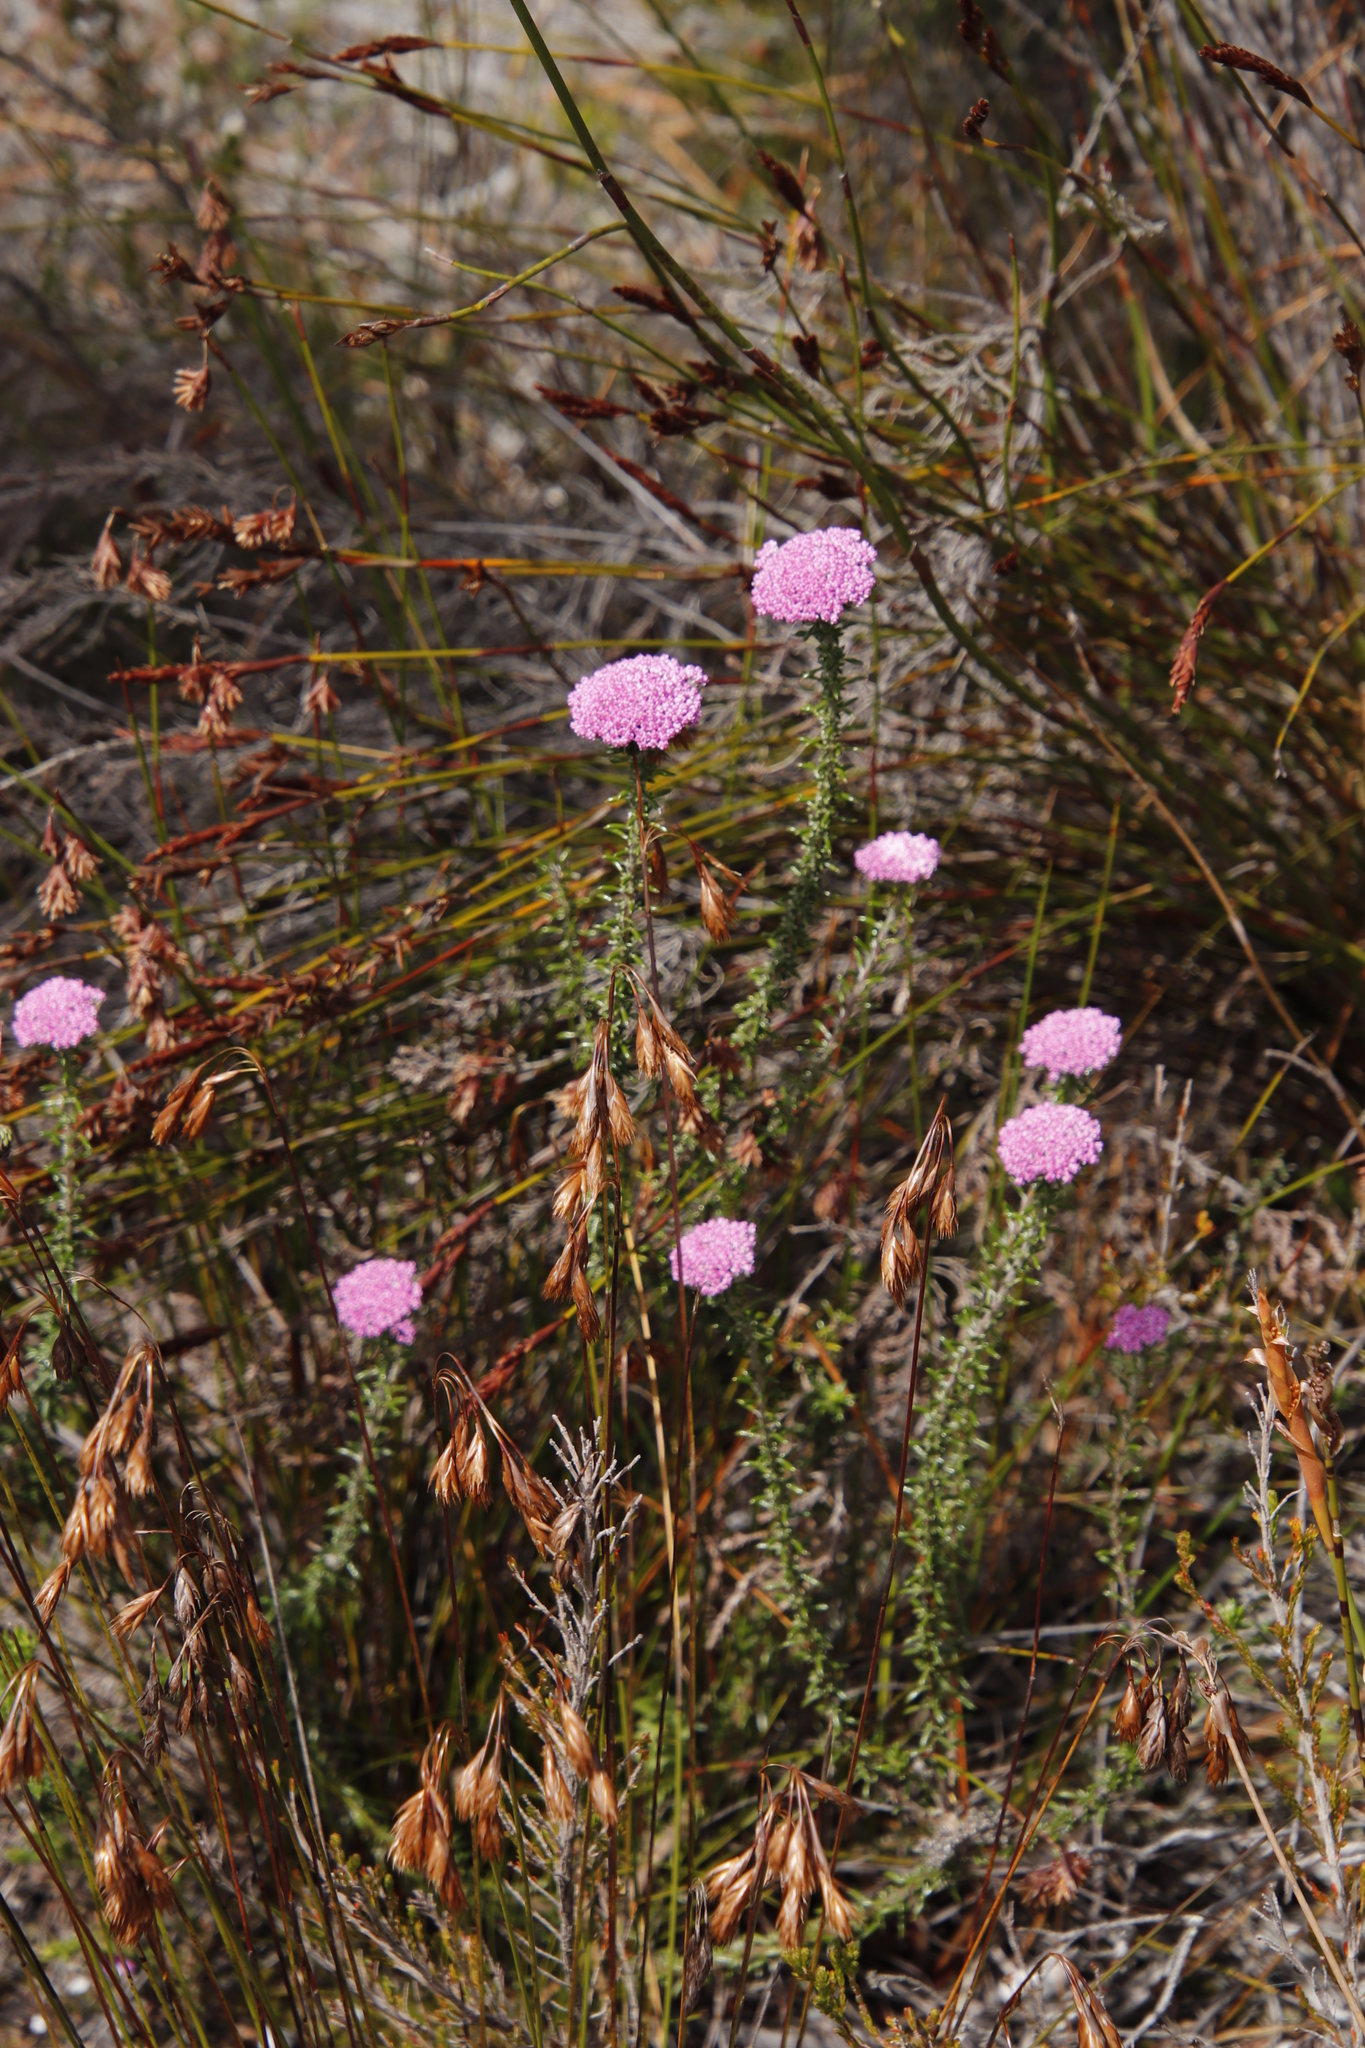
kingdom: Plantae
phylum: Tracheophyta
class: Magnoliopsida
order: Asterales
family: Asteraceae
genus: Metalasia
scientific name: Metalasia serrata
